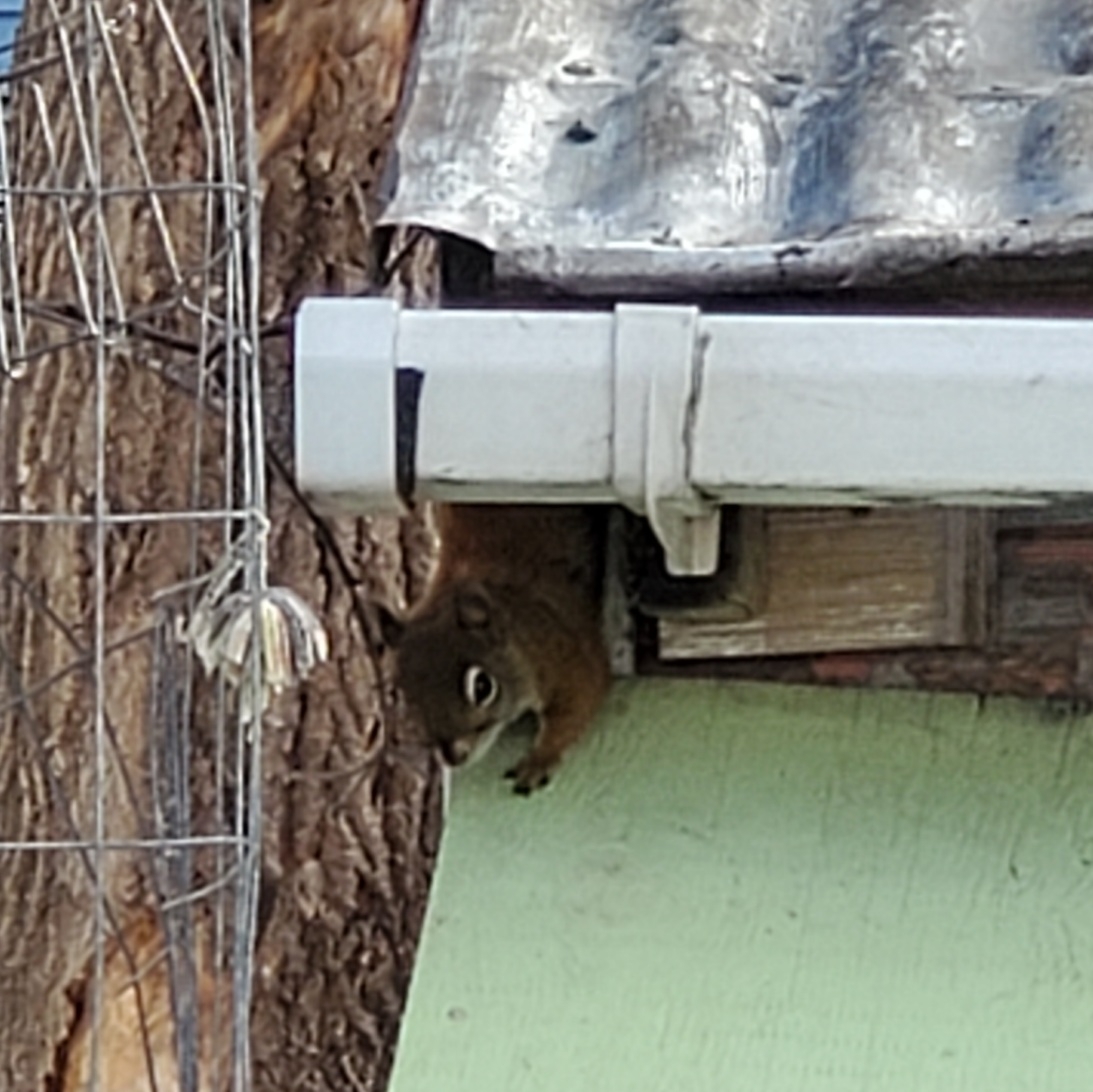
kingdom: Animalia
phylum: Chordata
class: Mammalia
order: Rodentia
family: Sciuridae
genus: Tamiasciurus
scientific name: Tamiasciurus hudsonicus
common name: Red squirrel
